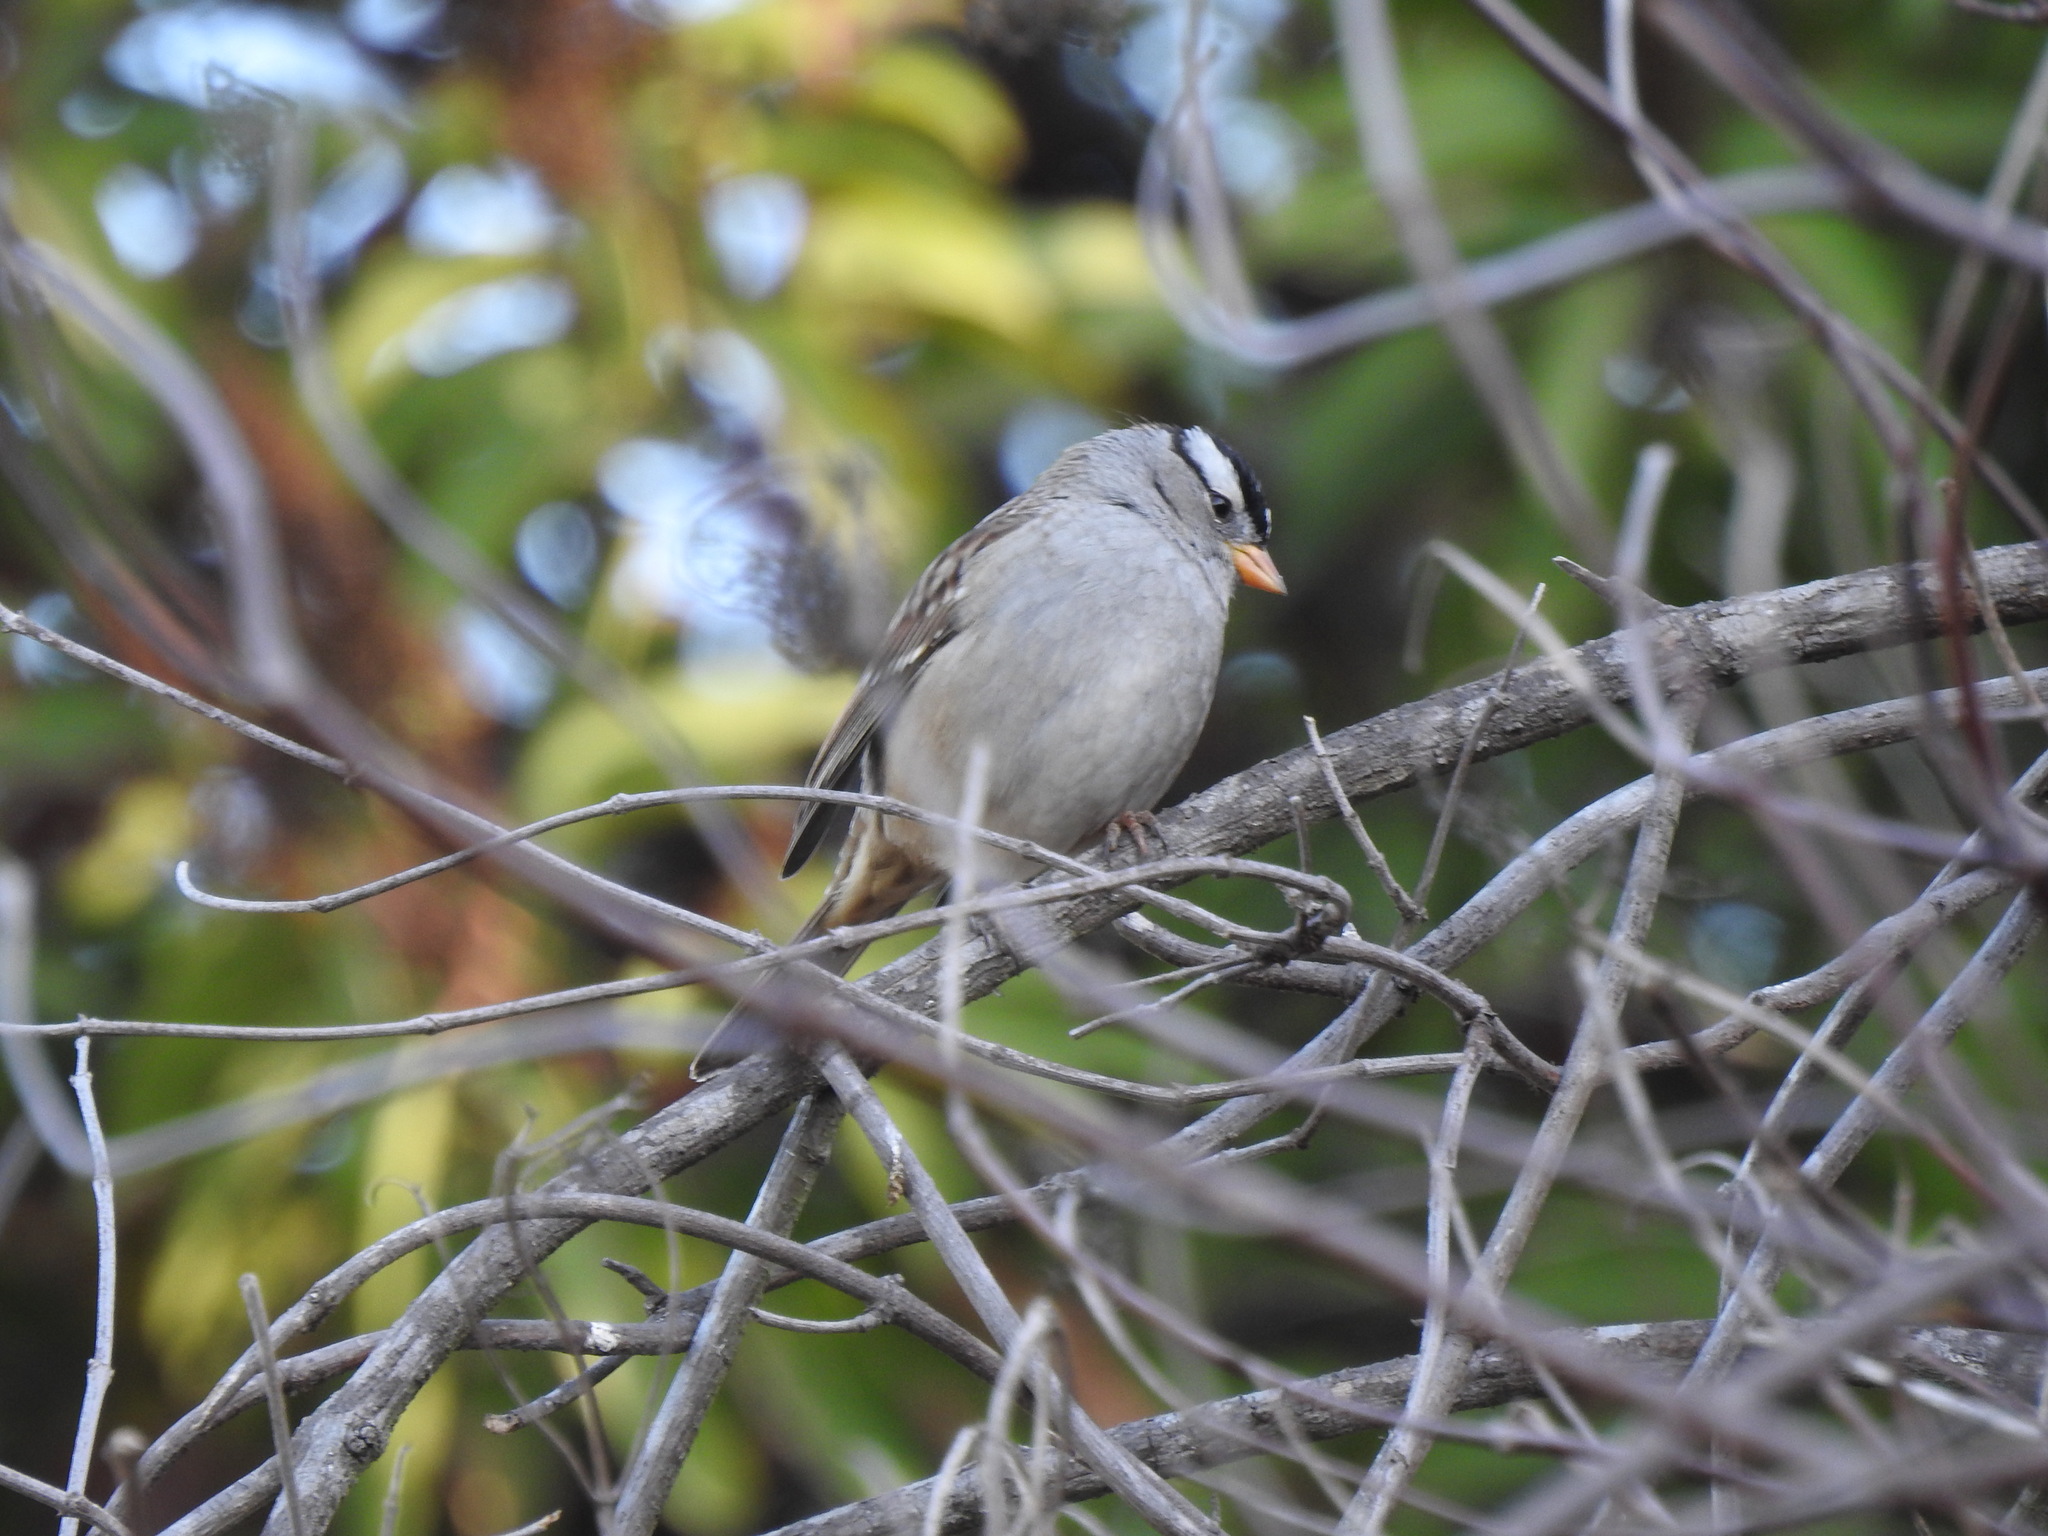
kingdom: Animalia
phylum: Chordata
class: Aves
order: Passeriformes
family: Passerellidae
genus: Zonotrichia
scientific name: Zonotrichia leucophrys
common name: White-crowned sparrow
